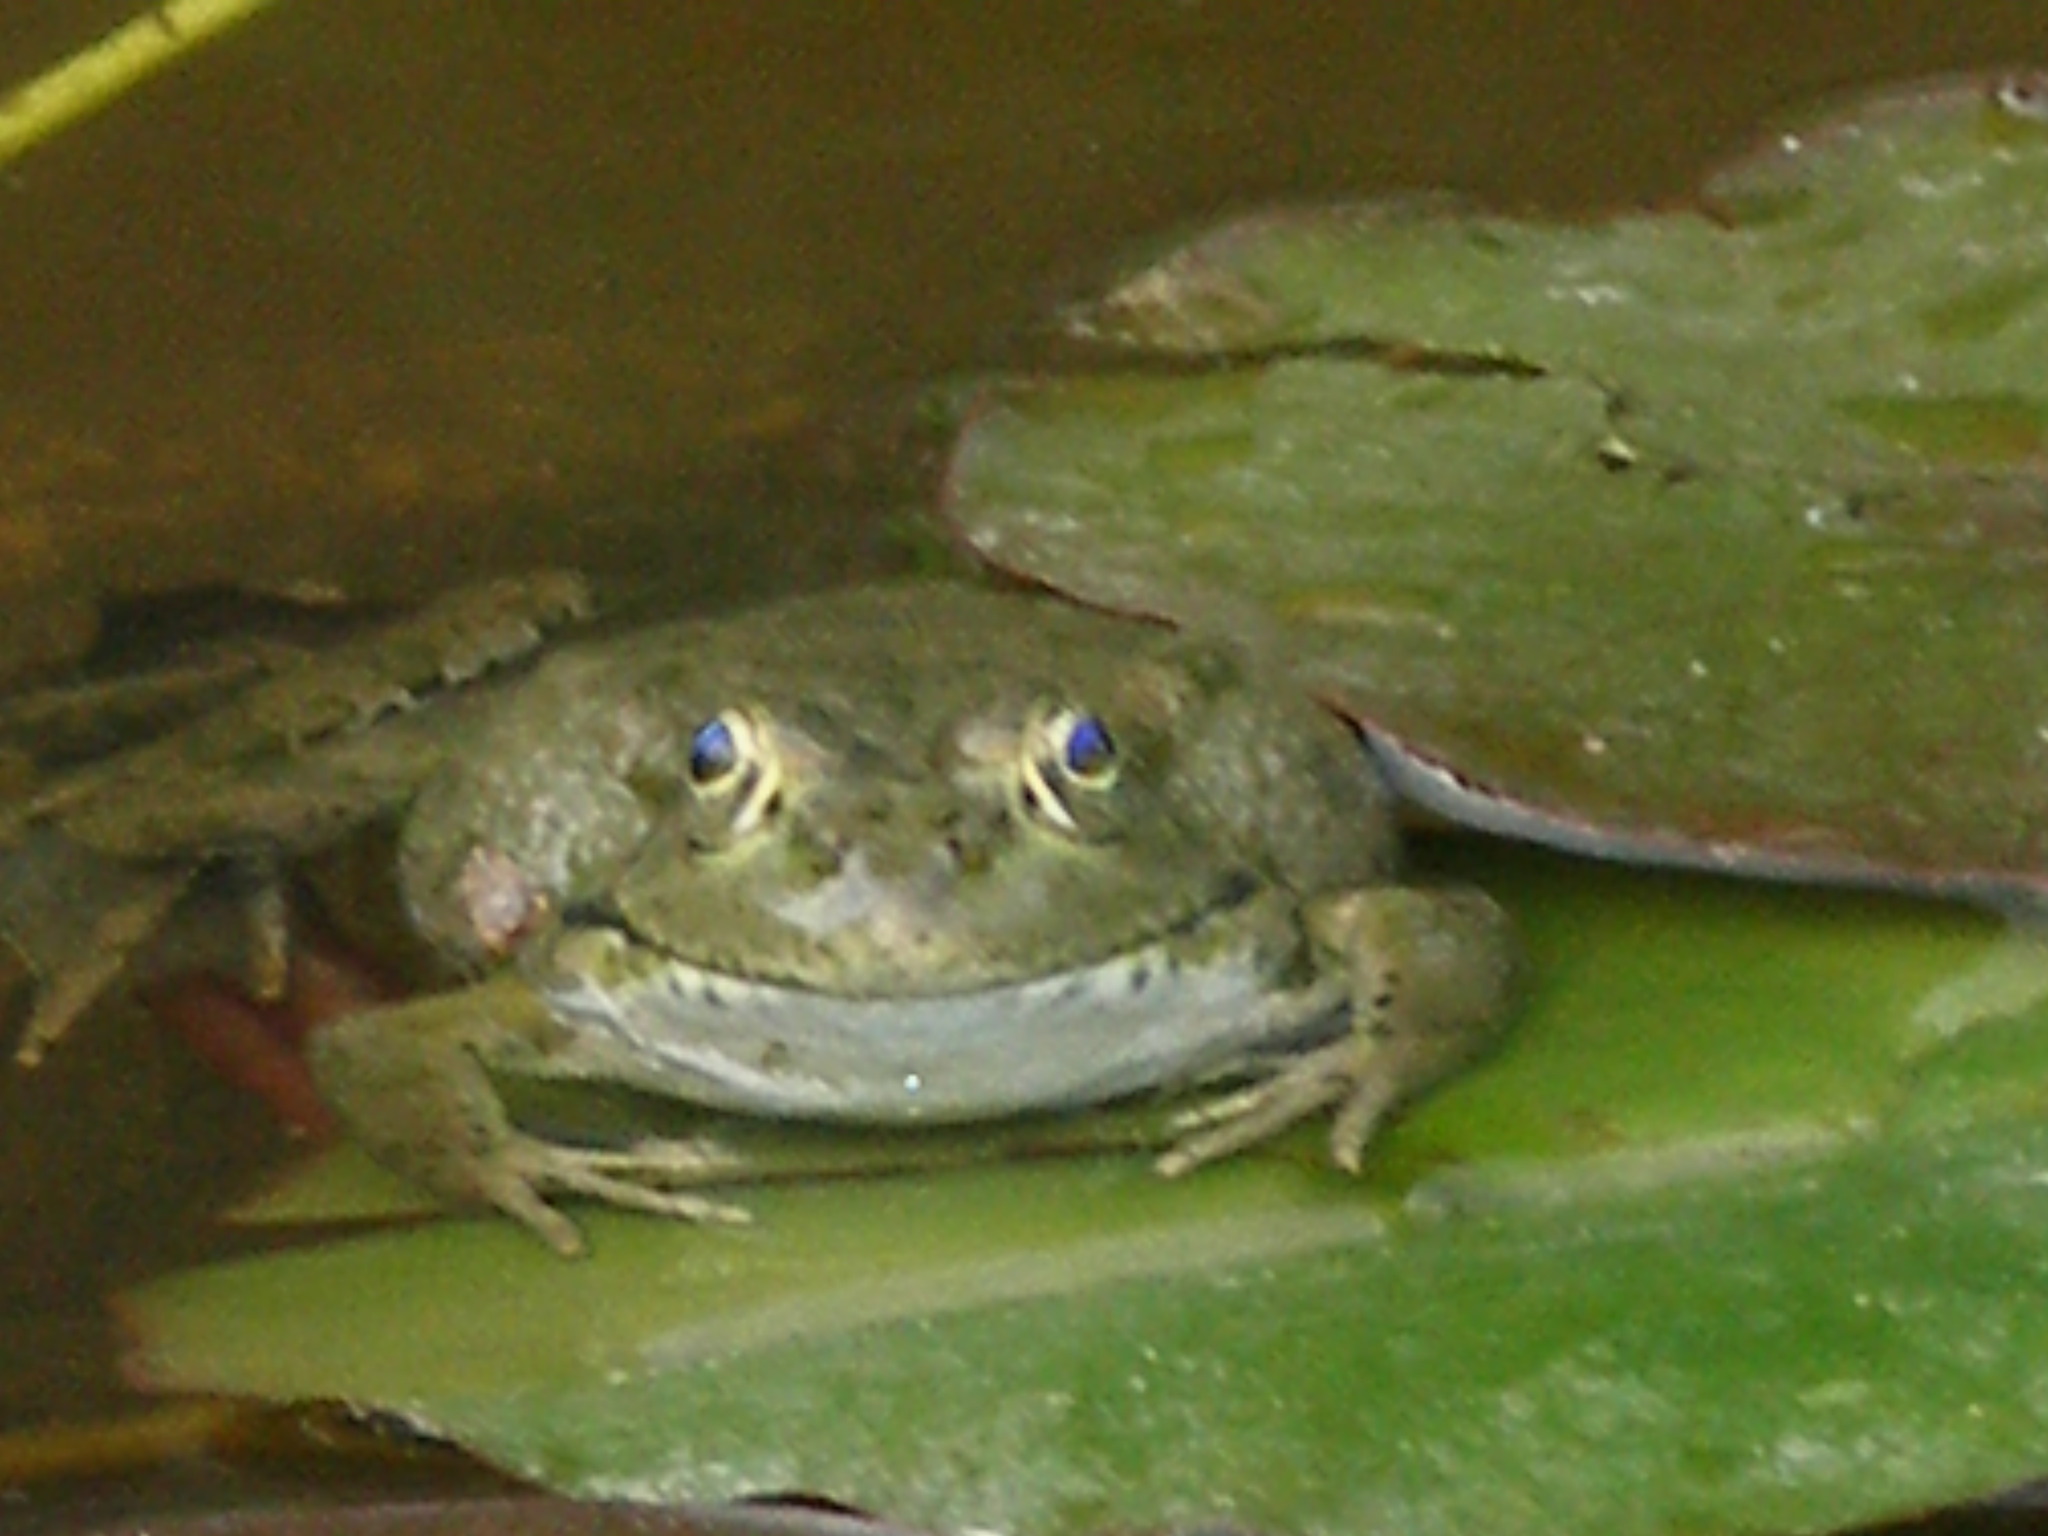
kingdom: Animalia
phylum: Chordata
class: Amphibia
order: Anura
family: Ranidae
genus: Pelophylax
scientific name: Pelophylax ridibundus
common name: Marsh frog
